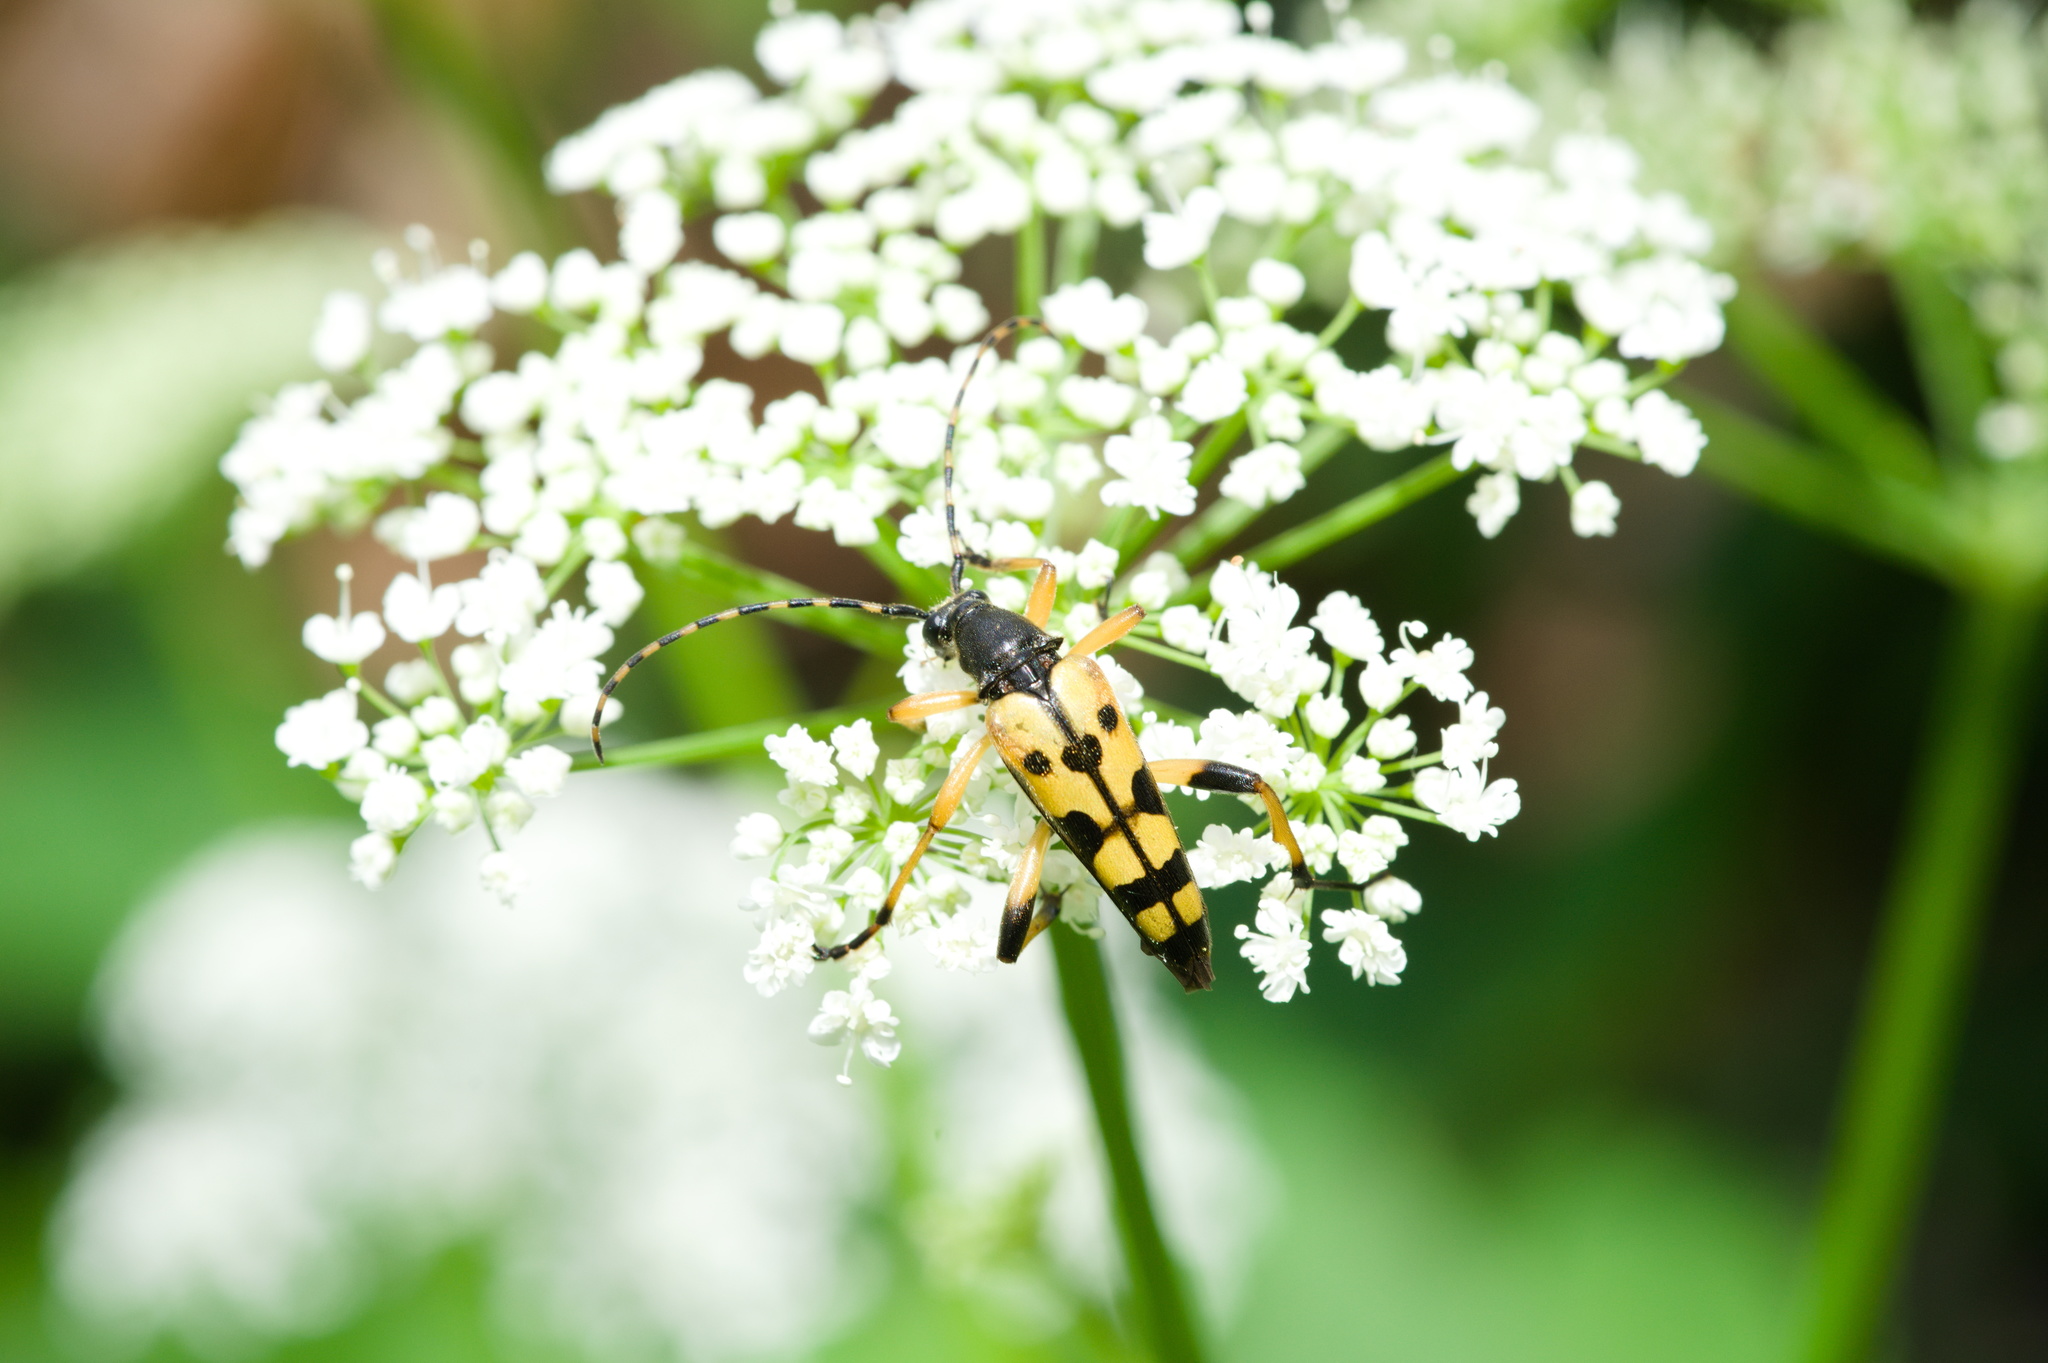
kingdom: Animalia
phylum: Arthropoda
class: Insecta
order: Coleoptera
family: Cerambycidae
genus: Rutpela
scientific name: Rutpela maculata
